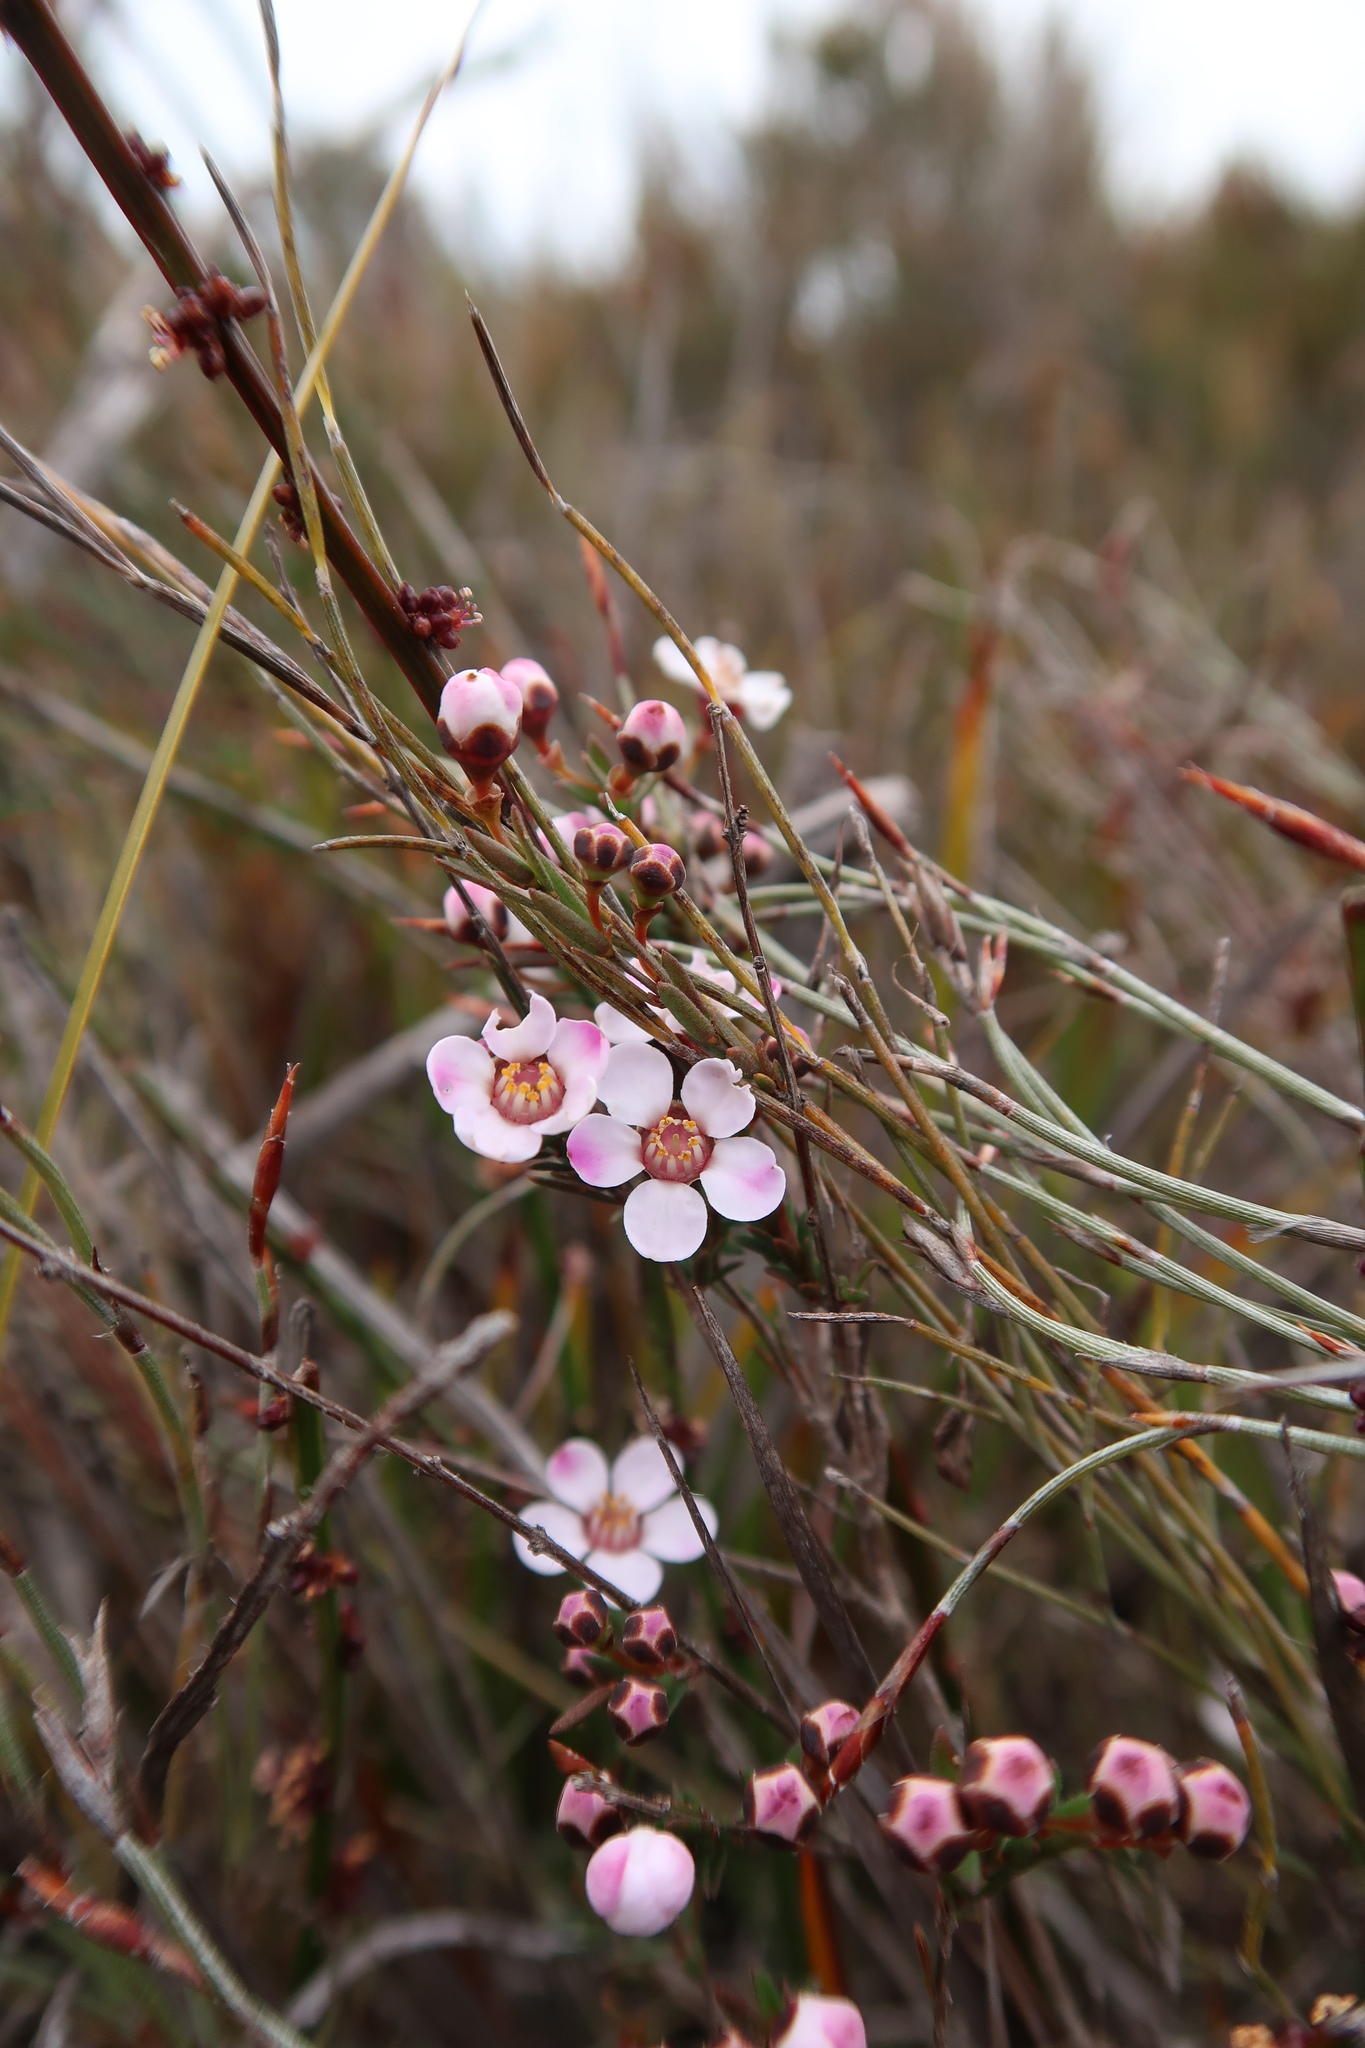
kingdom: Plantae
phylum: Tracheophyta
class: Magnoliopsida
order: Myrtales
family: Myrtaceae
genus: Euryomyrtus
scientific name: Euryomyrtus ramosissima
